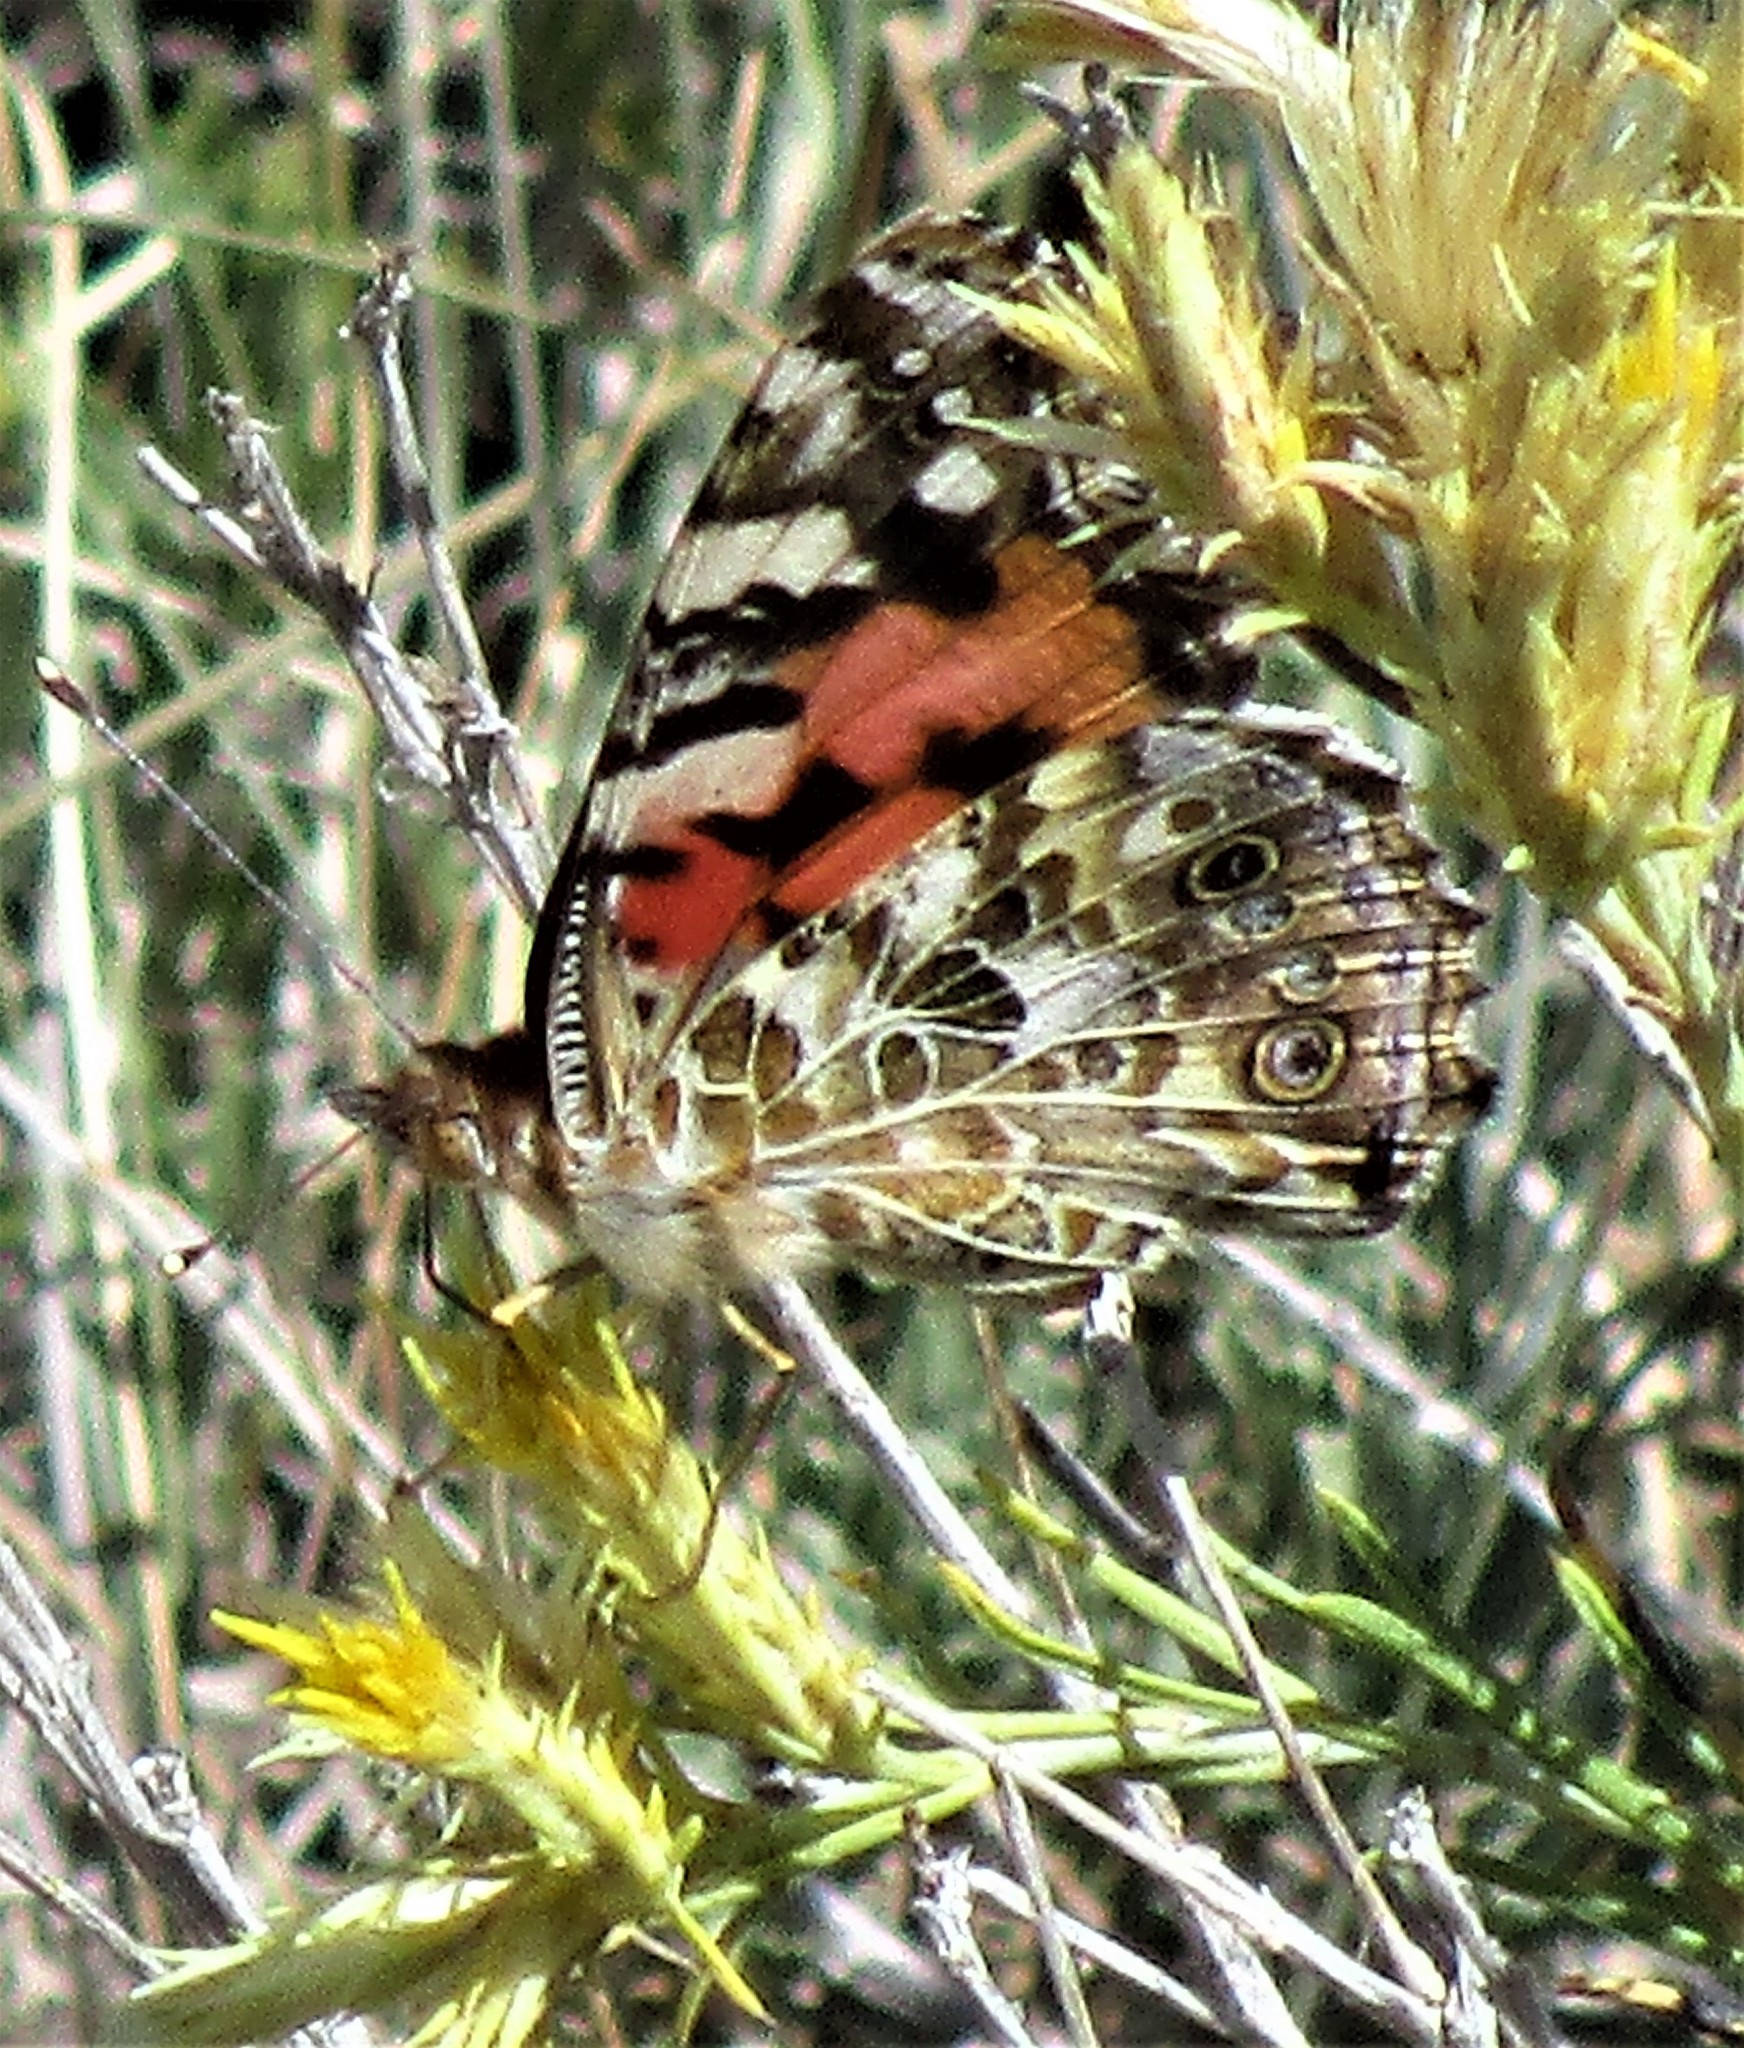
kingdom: Animalia
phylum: Arthropoda
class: Insecta
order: Lepidoptera
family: Nymphalidae
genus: Vanessa
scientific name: Vanessa cardui
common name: Painted lady
